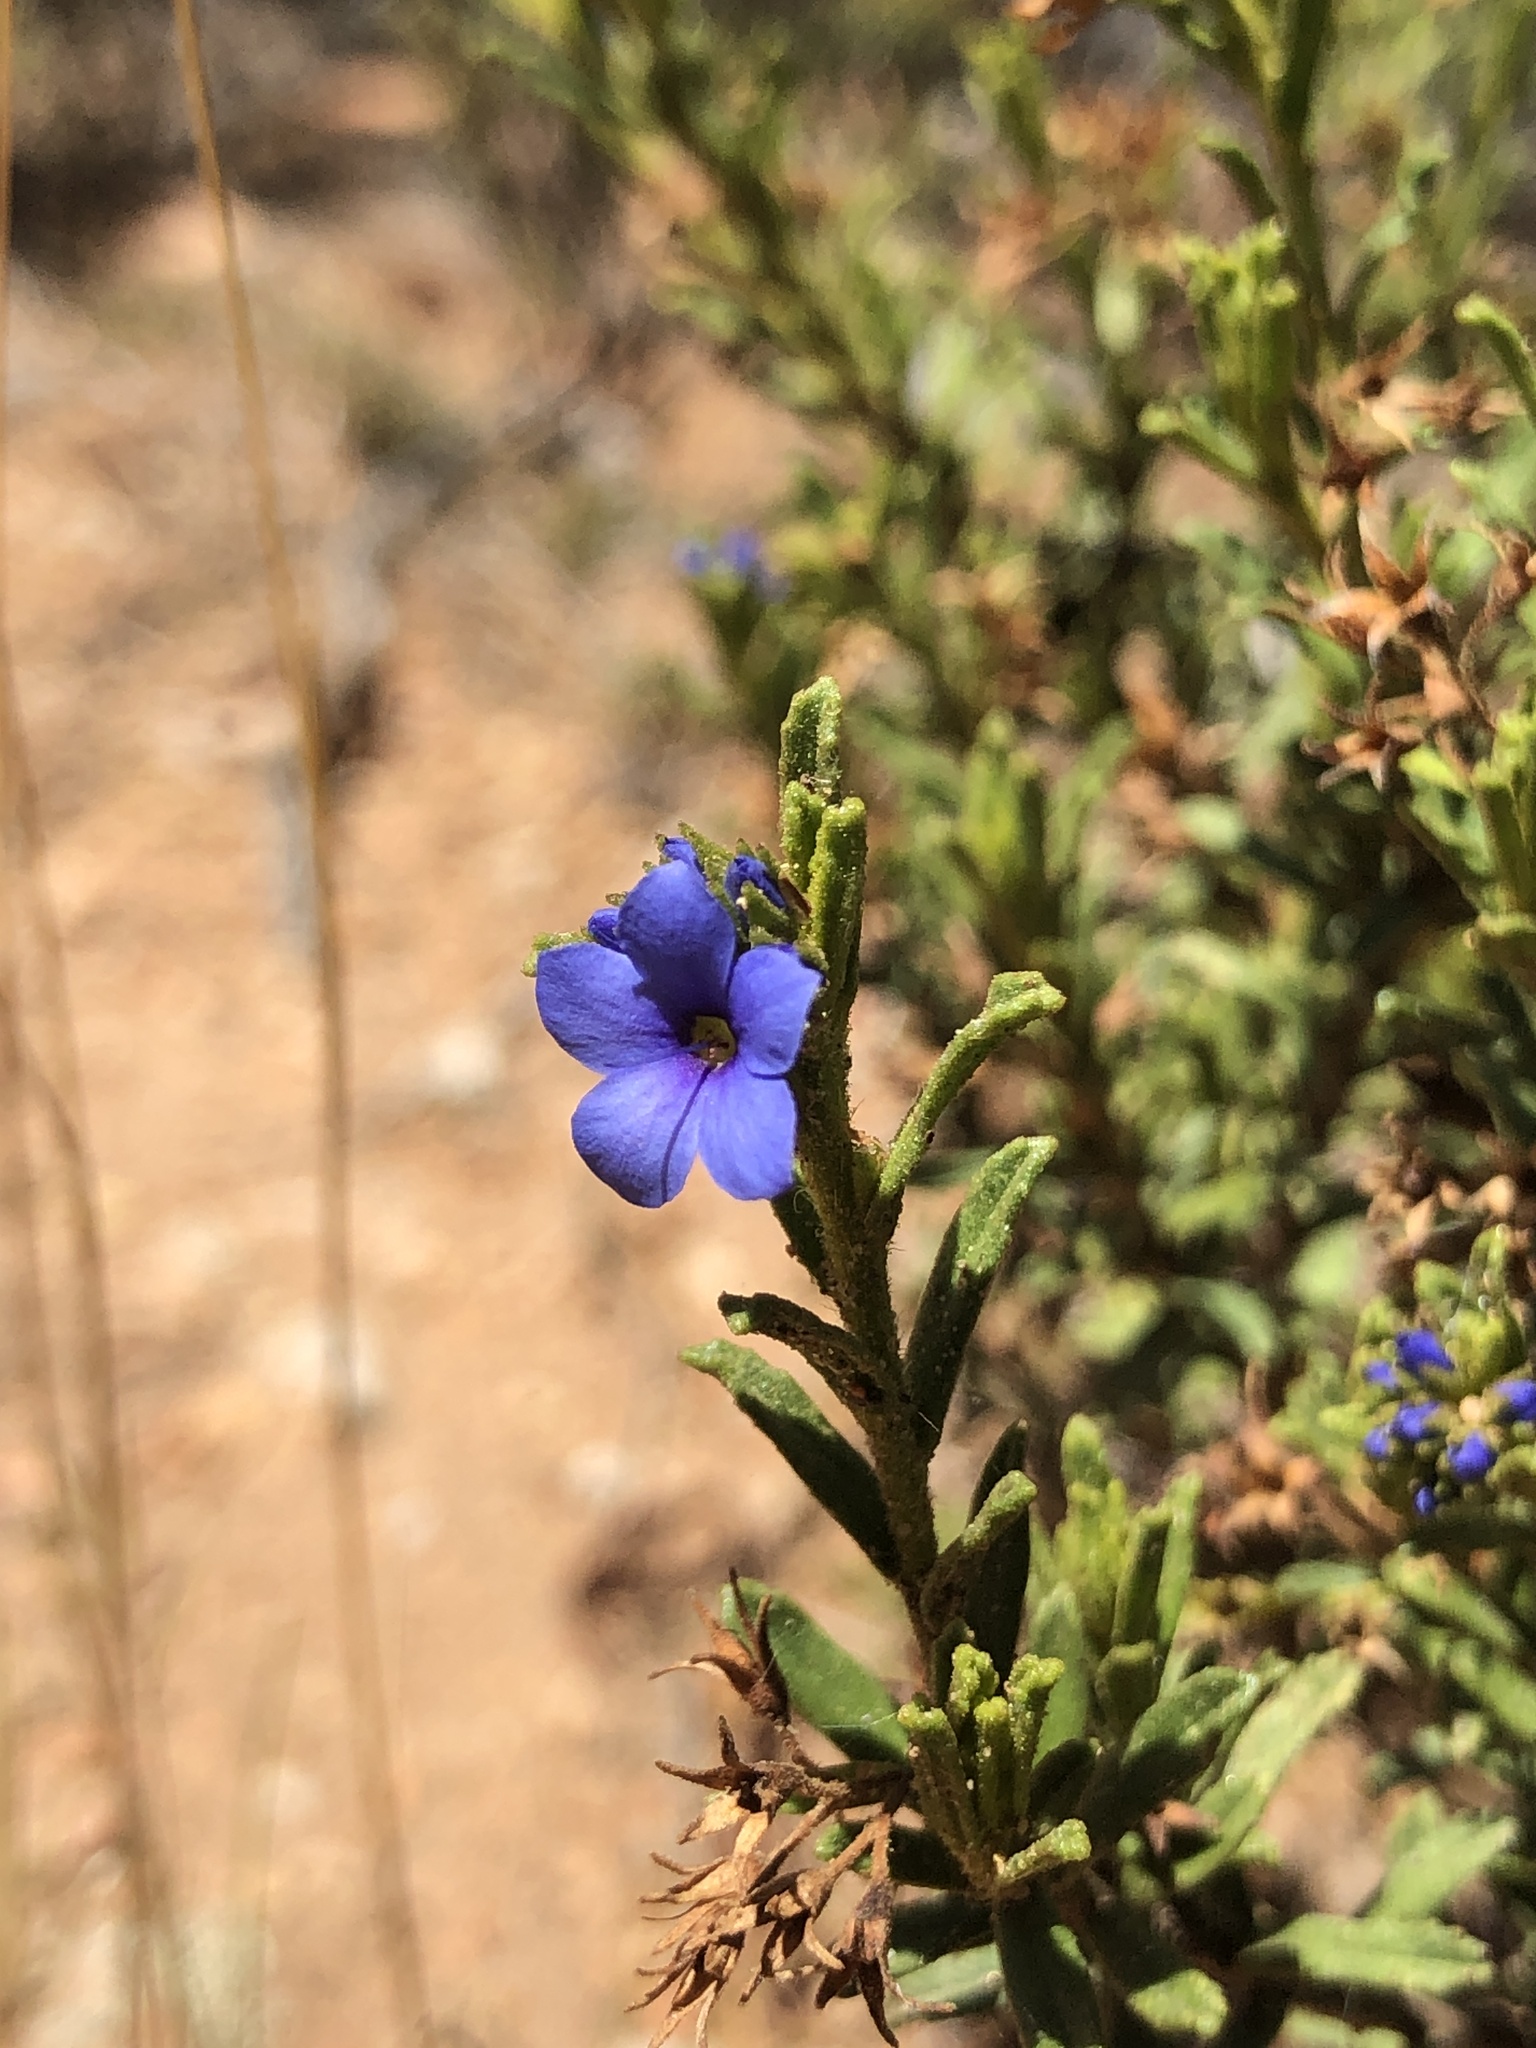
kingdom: Plantae
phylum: Tracheophyta
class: Magnoliopsida
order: Boraginales
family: Ehretiaceae
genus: Halgania
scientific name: Halgania cyanea
